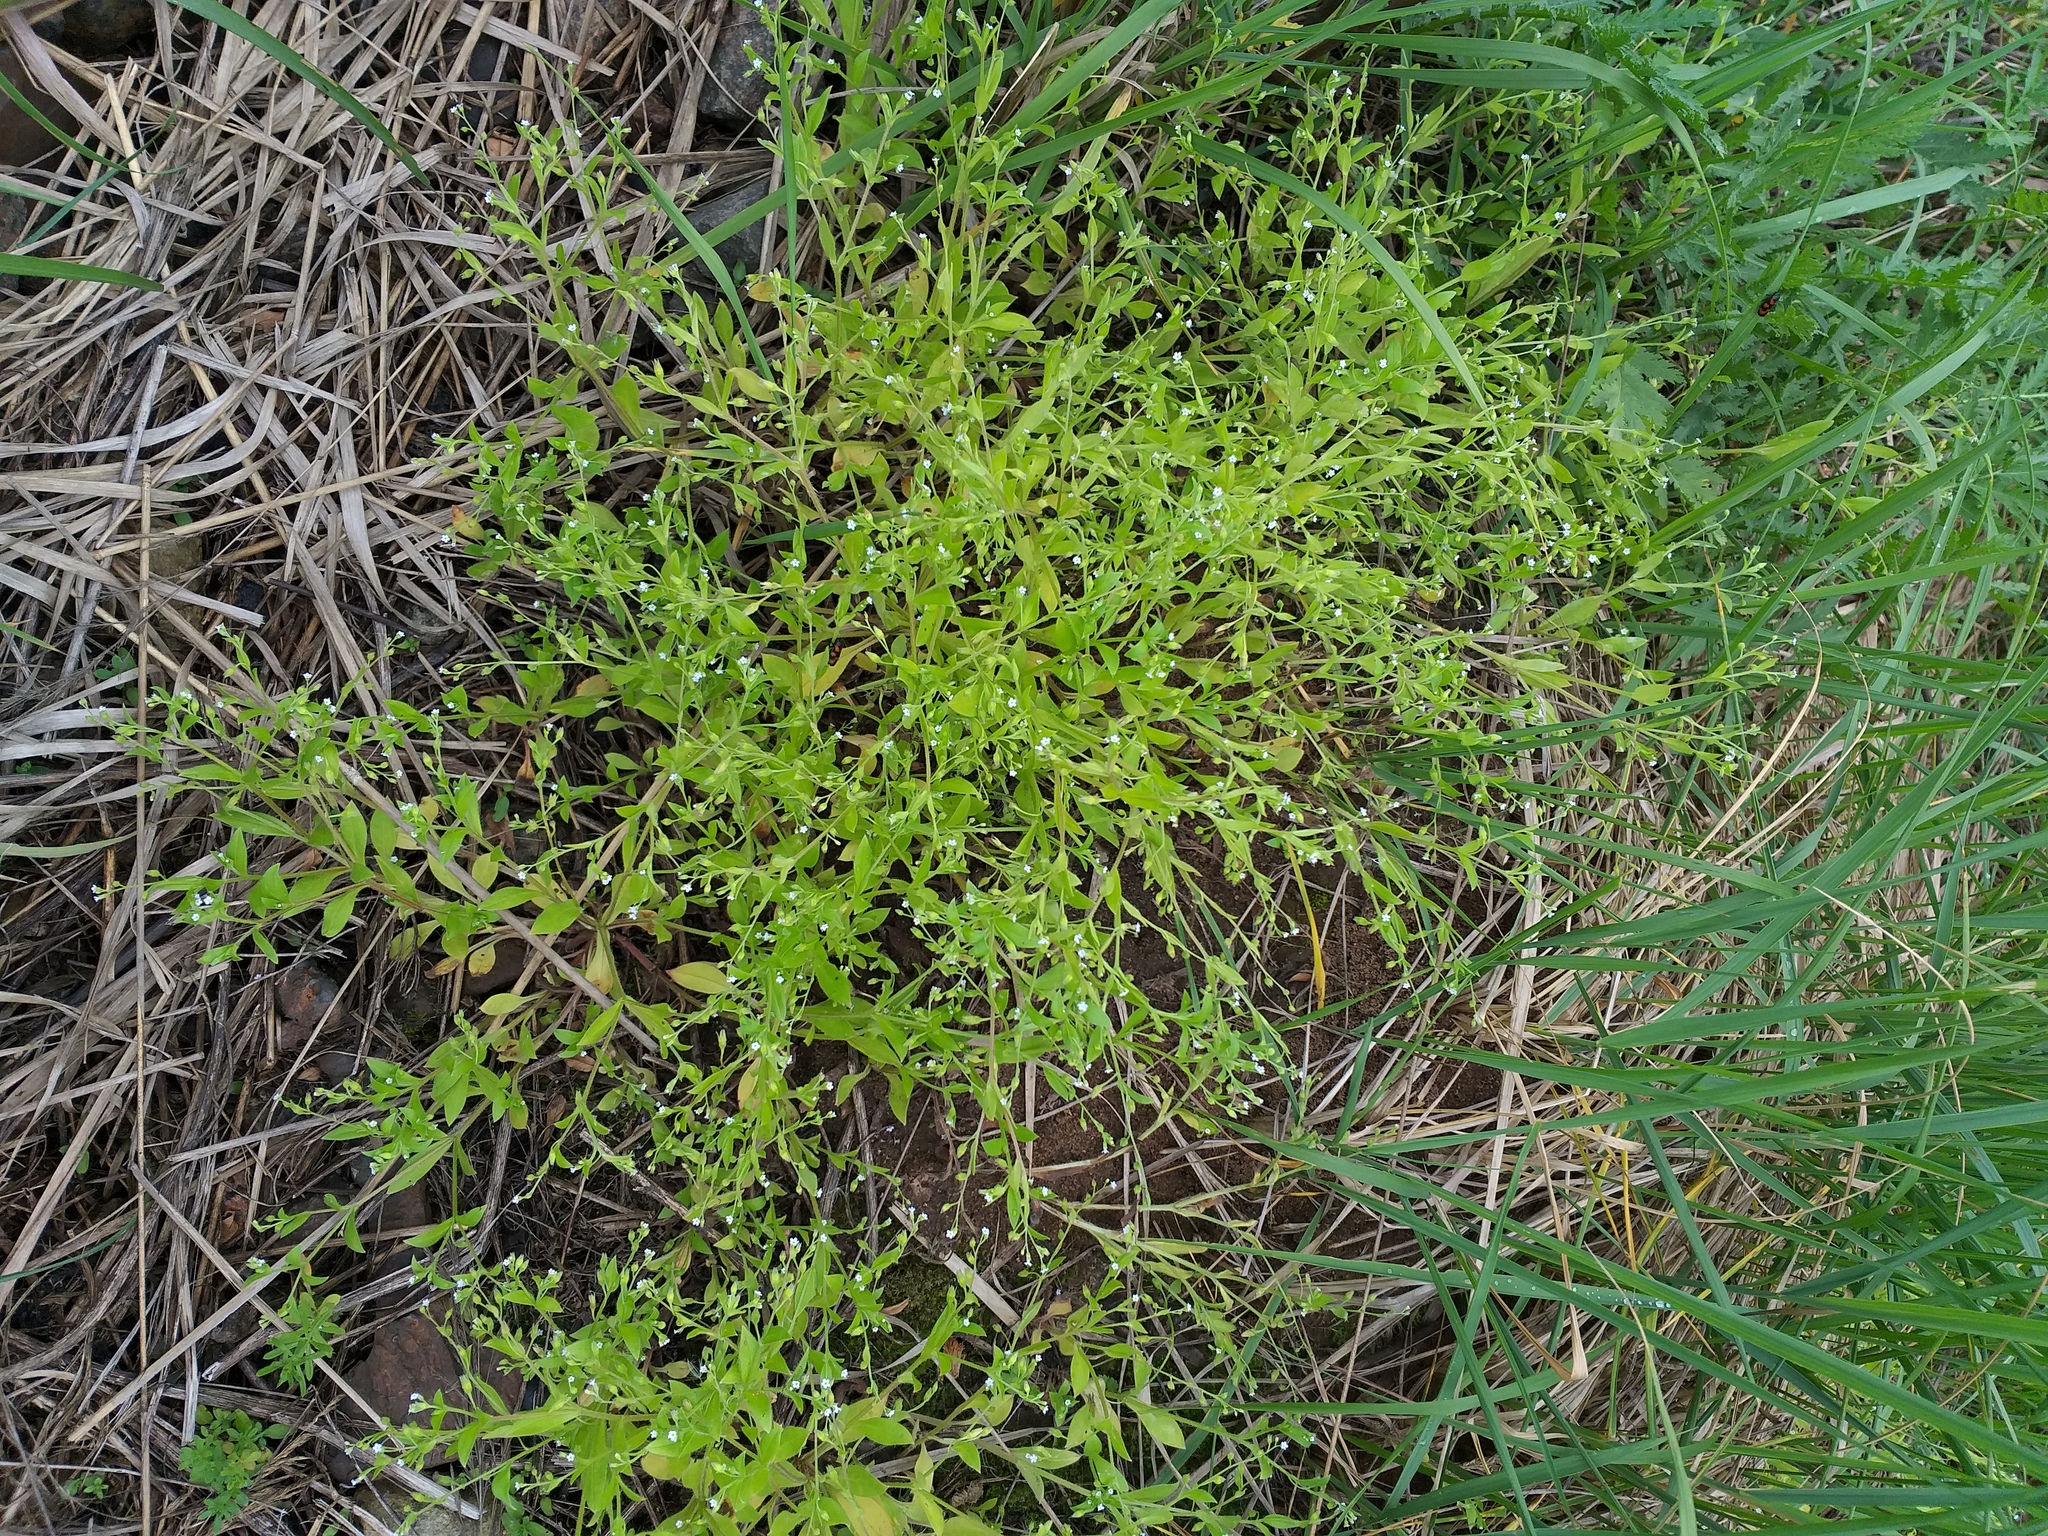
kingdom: Plantae
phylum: Tracheophyta
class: Magnoliopsida
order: Boraginales
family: Boraginaceae
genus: Myosotis
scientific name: Myosotis sparsiflora
